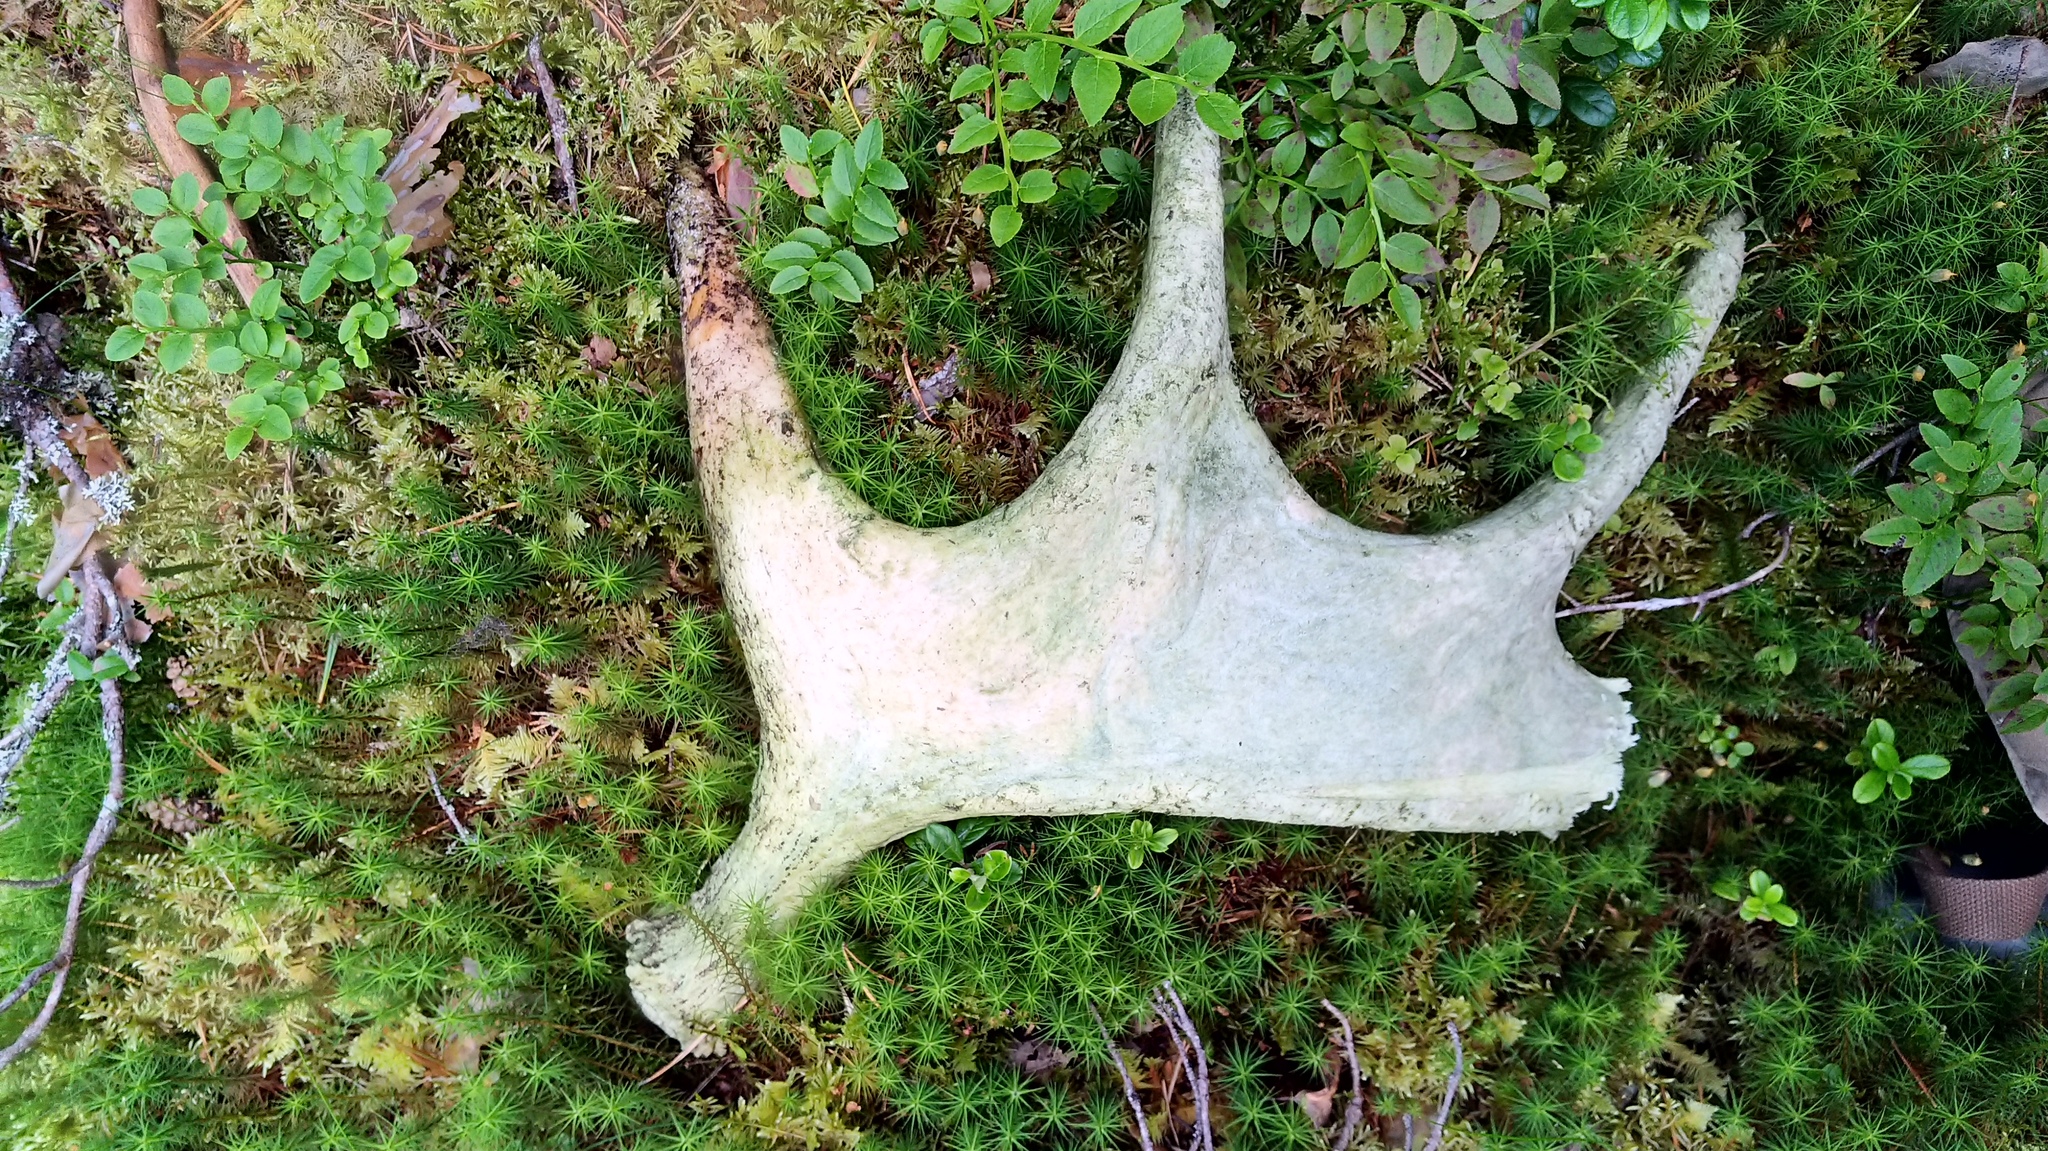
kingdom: Animalia
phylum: Chordata
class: Mammalia
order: Artiodactyla
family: Cervidae
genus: Alces
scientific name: Alces alces
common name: Moose
